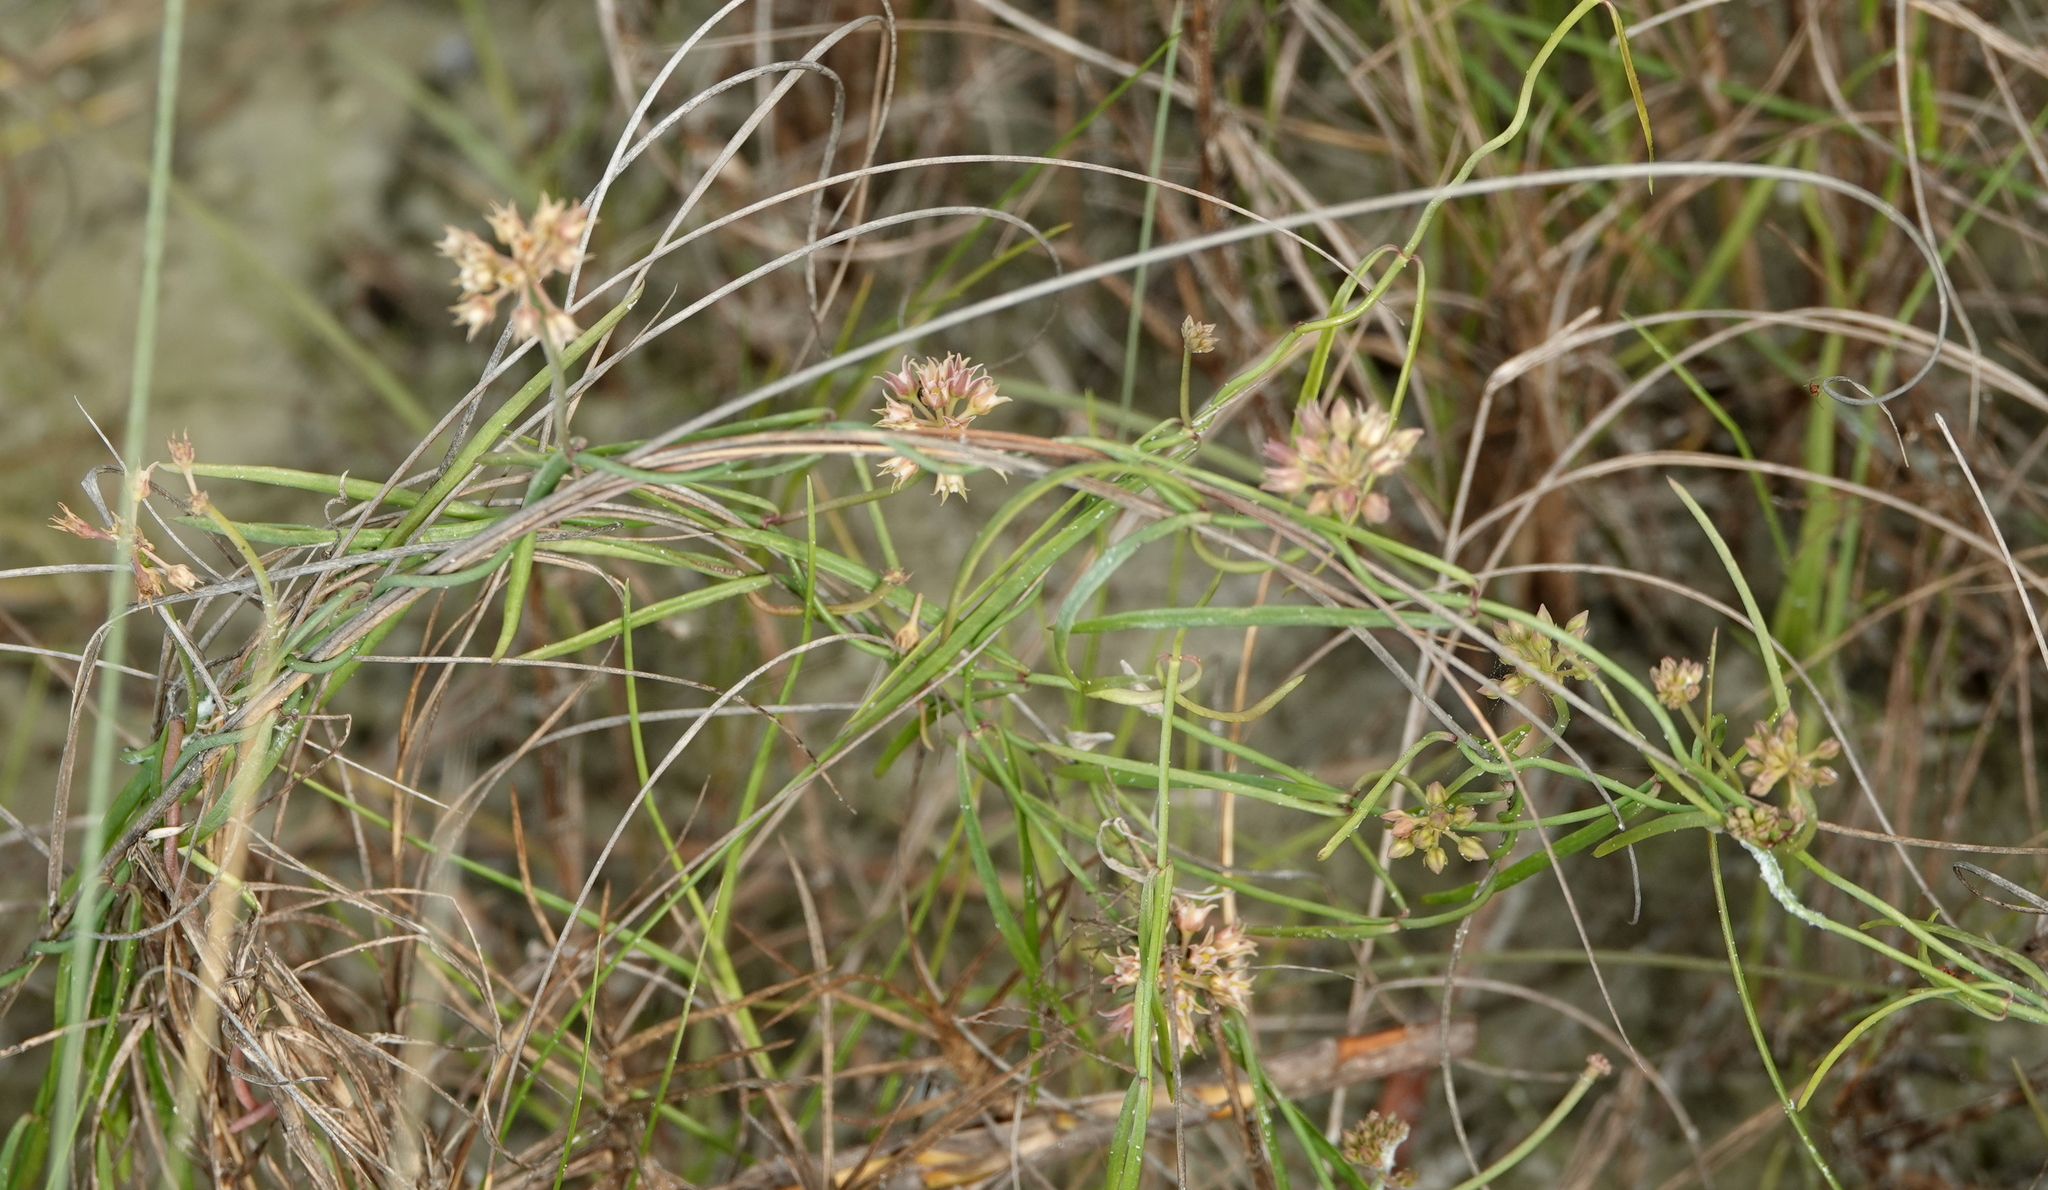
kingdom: Plantae
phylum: Tracheophyta
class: Magnoliopsida
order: Gentianales
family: Apocynaceae
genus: Pattalias
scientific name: Pattalias
